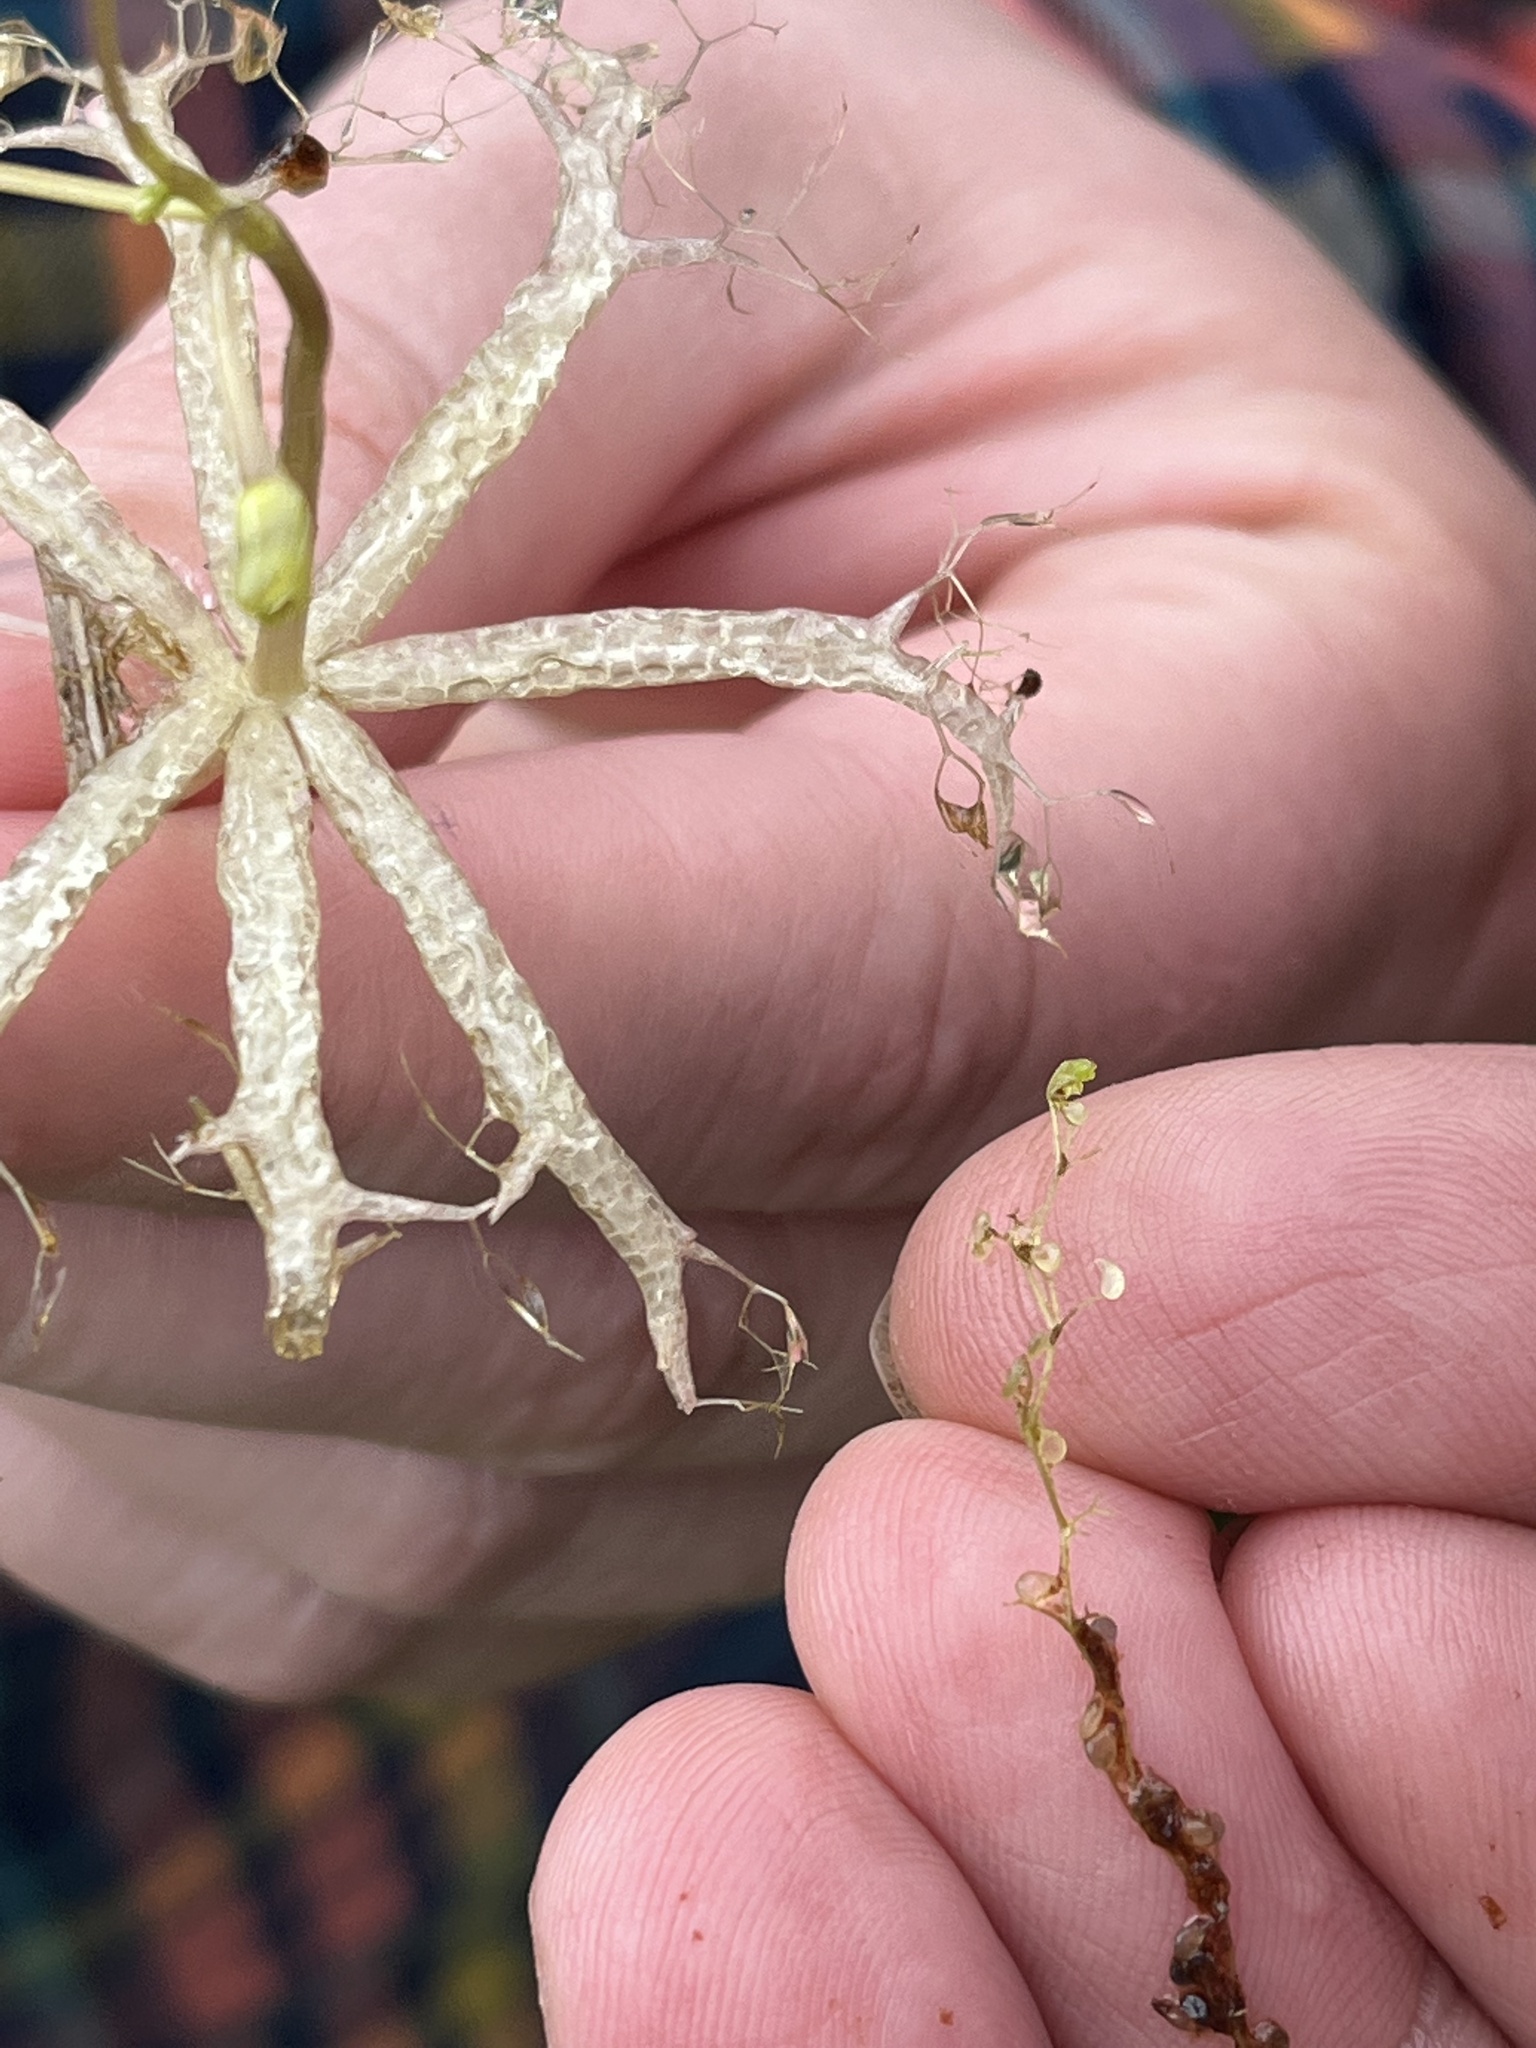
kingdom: Plantae
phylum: Tracheophyta
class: Magnoliopsida
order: Lamiales
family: Lentibulariaceae
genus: Utricularia
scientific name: Utricularia radiata
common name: Floating bladderwort
